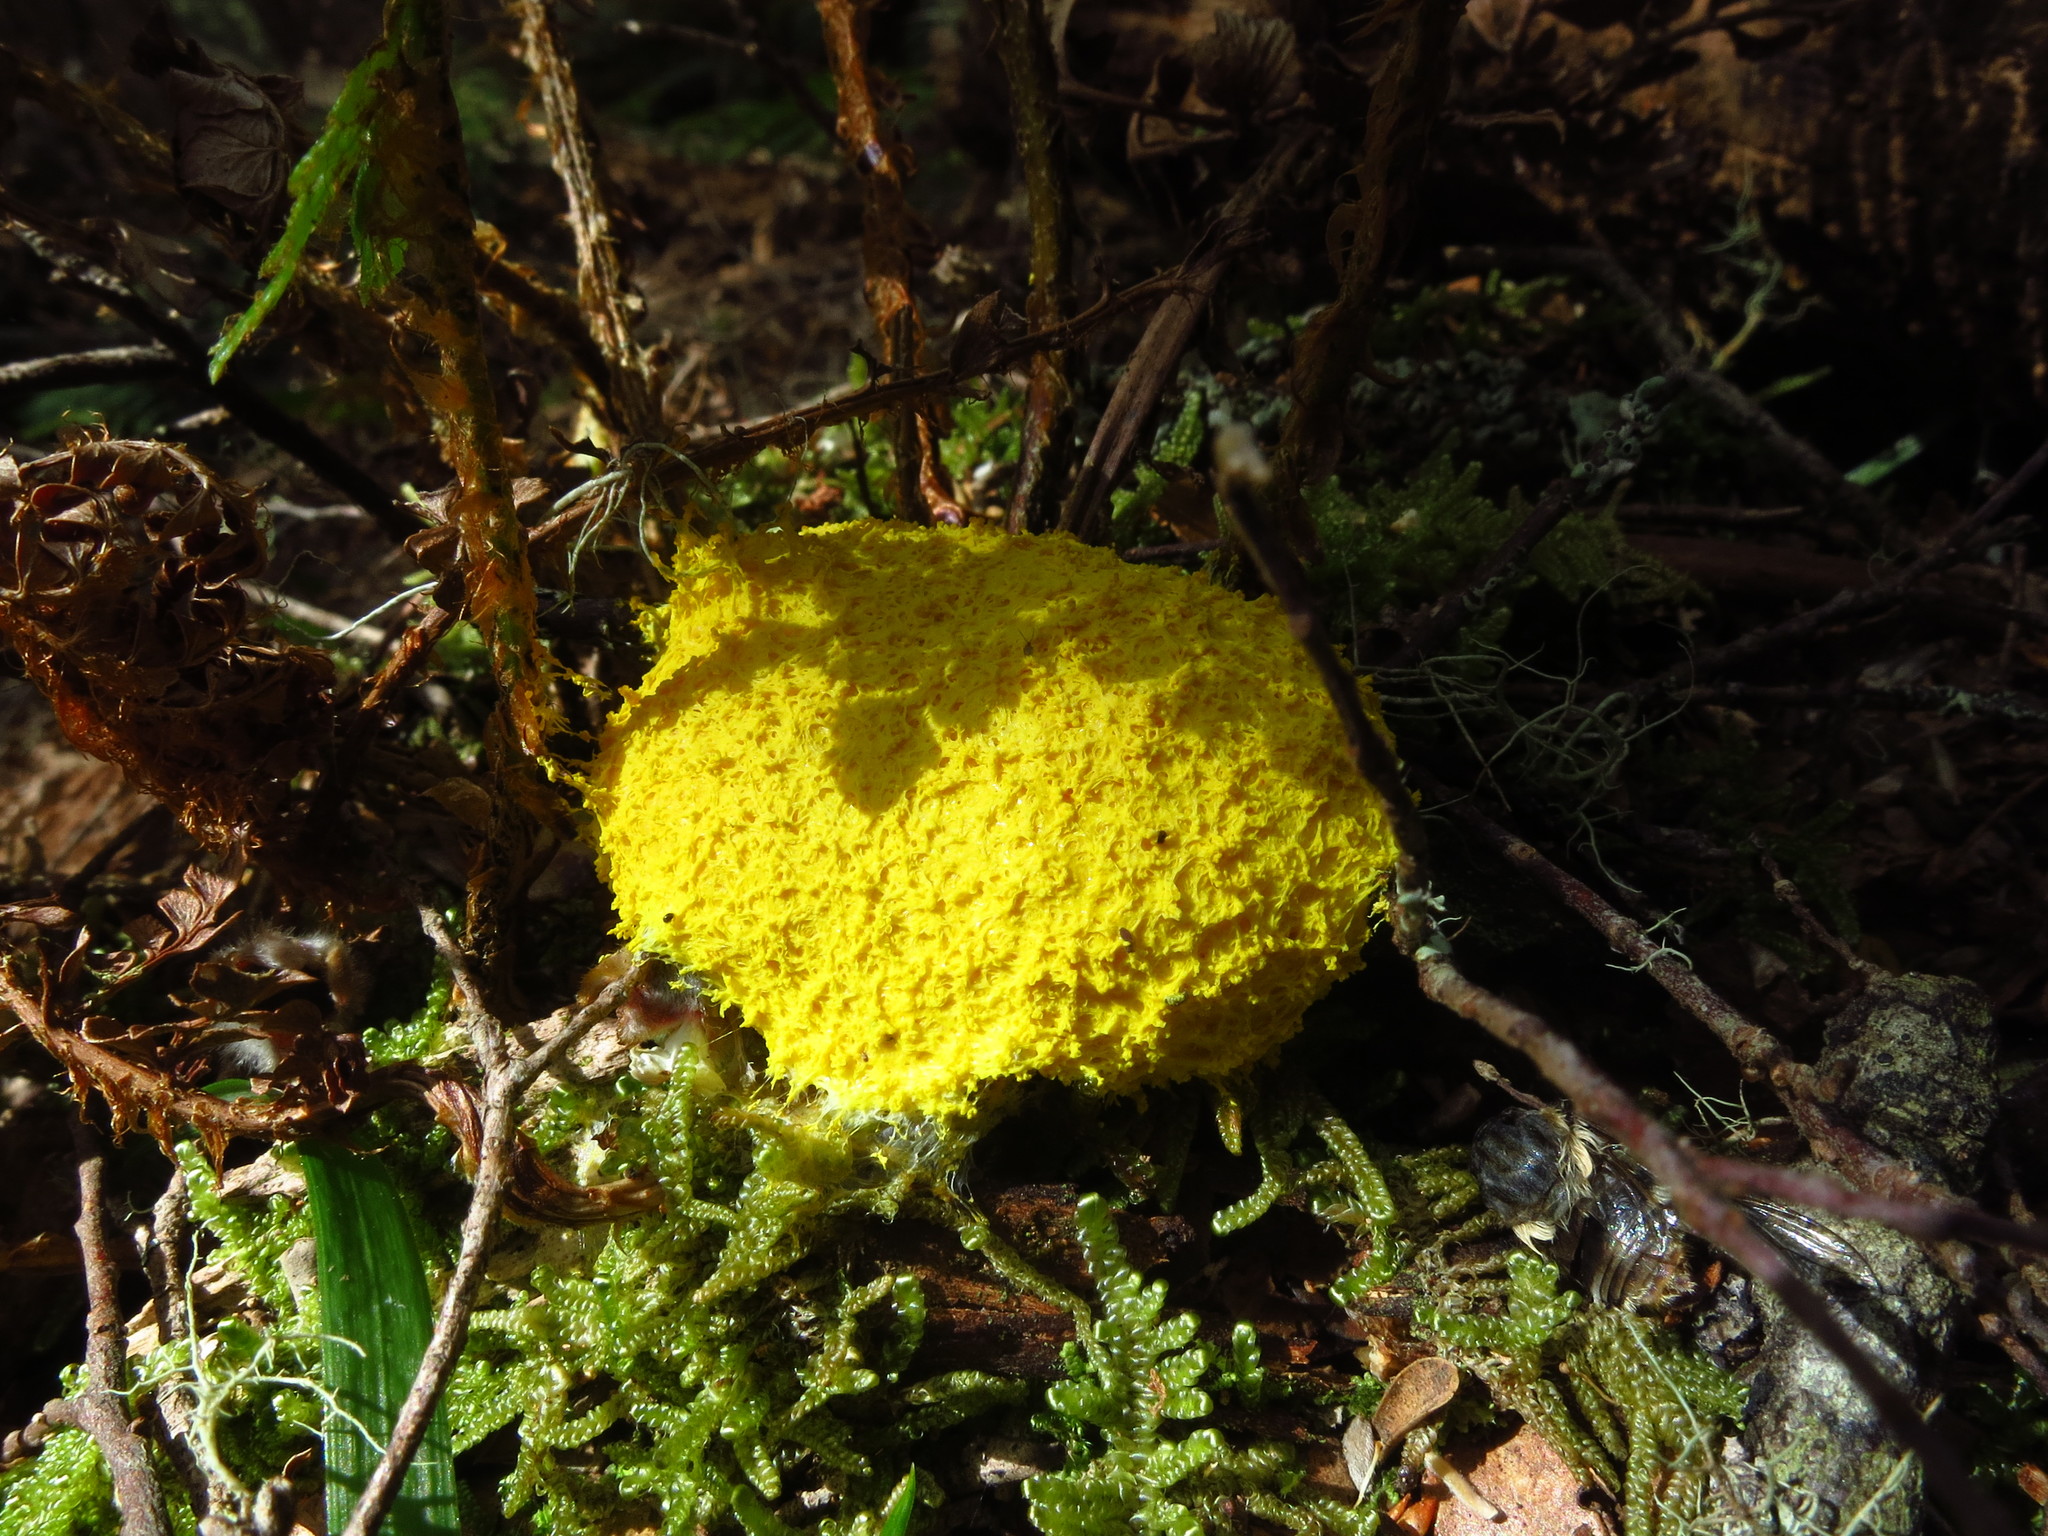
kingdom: Protozoa
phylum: Mycetozoa
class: Myxomycetes
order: Physarales
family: Physaraceae
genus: Fuligo
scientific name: Fuligo septica
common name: Dog vomit slime mold
